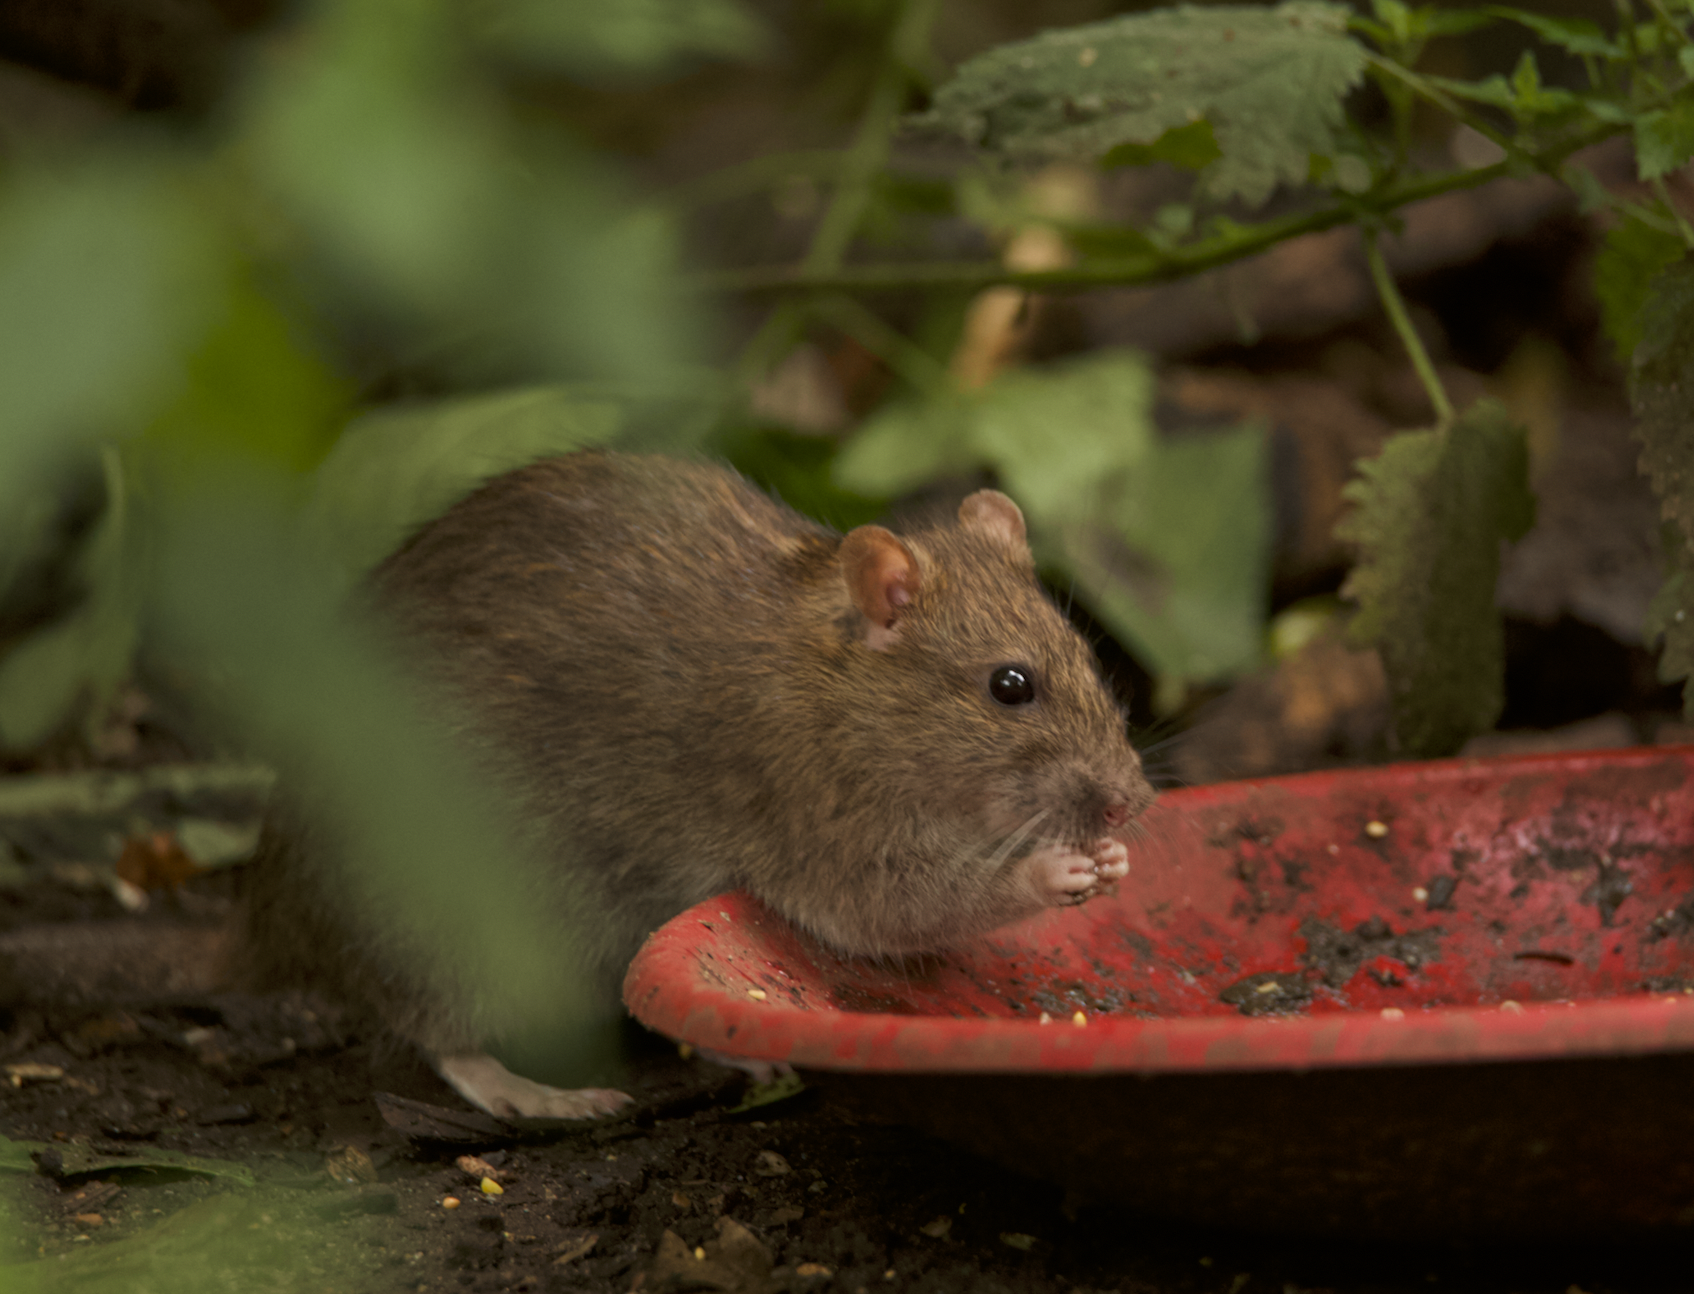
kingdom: Animalia
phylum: Chordata
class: Mammalia
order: Rodentia
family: Muridae
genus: Rattus
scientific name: Rattus norvegicus
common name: Brown rat
